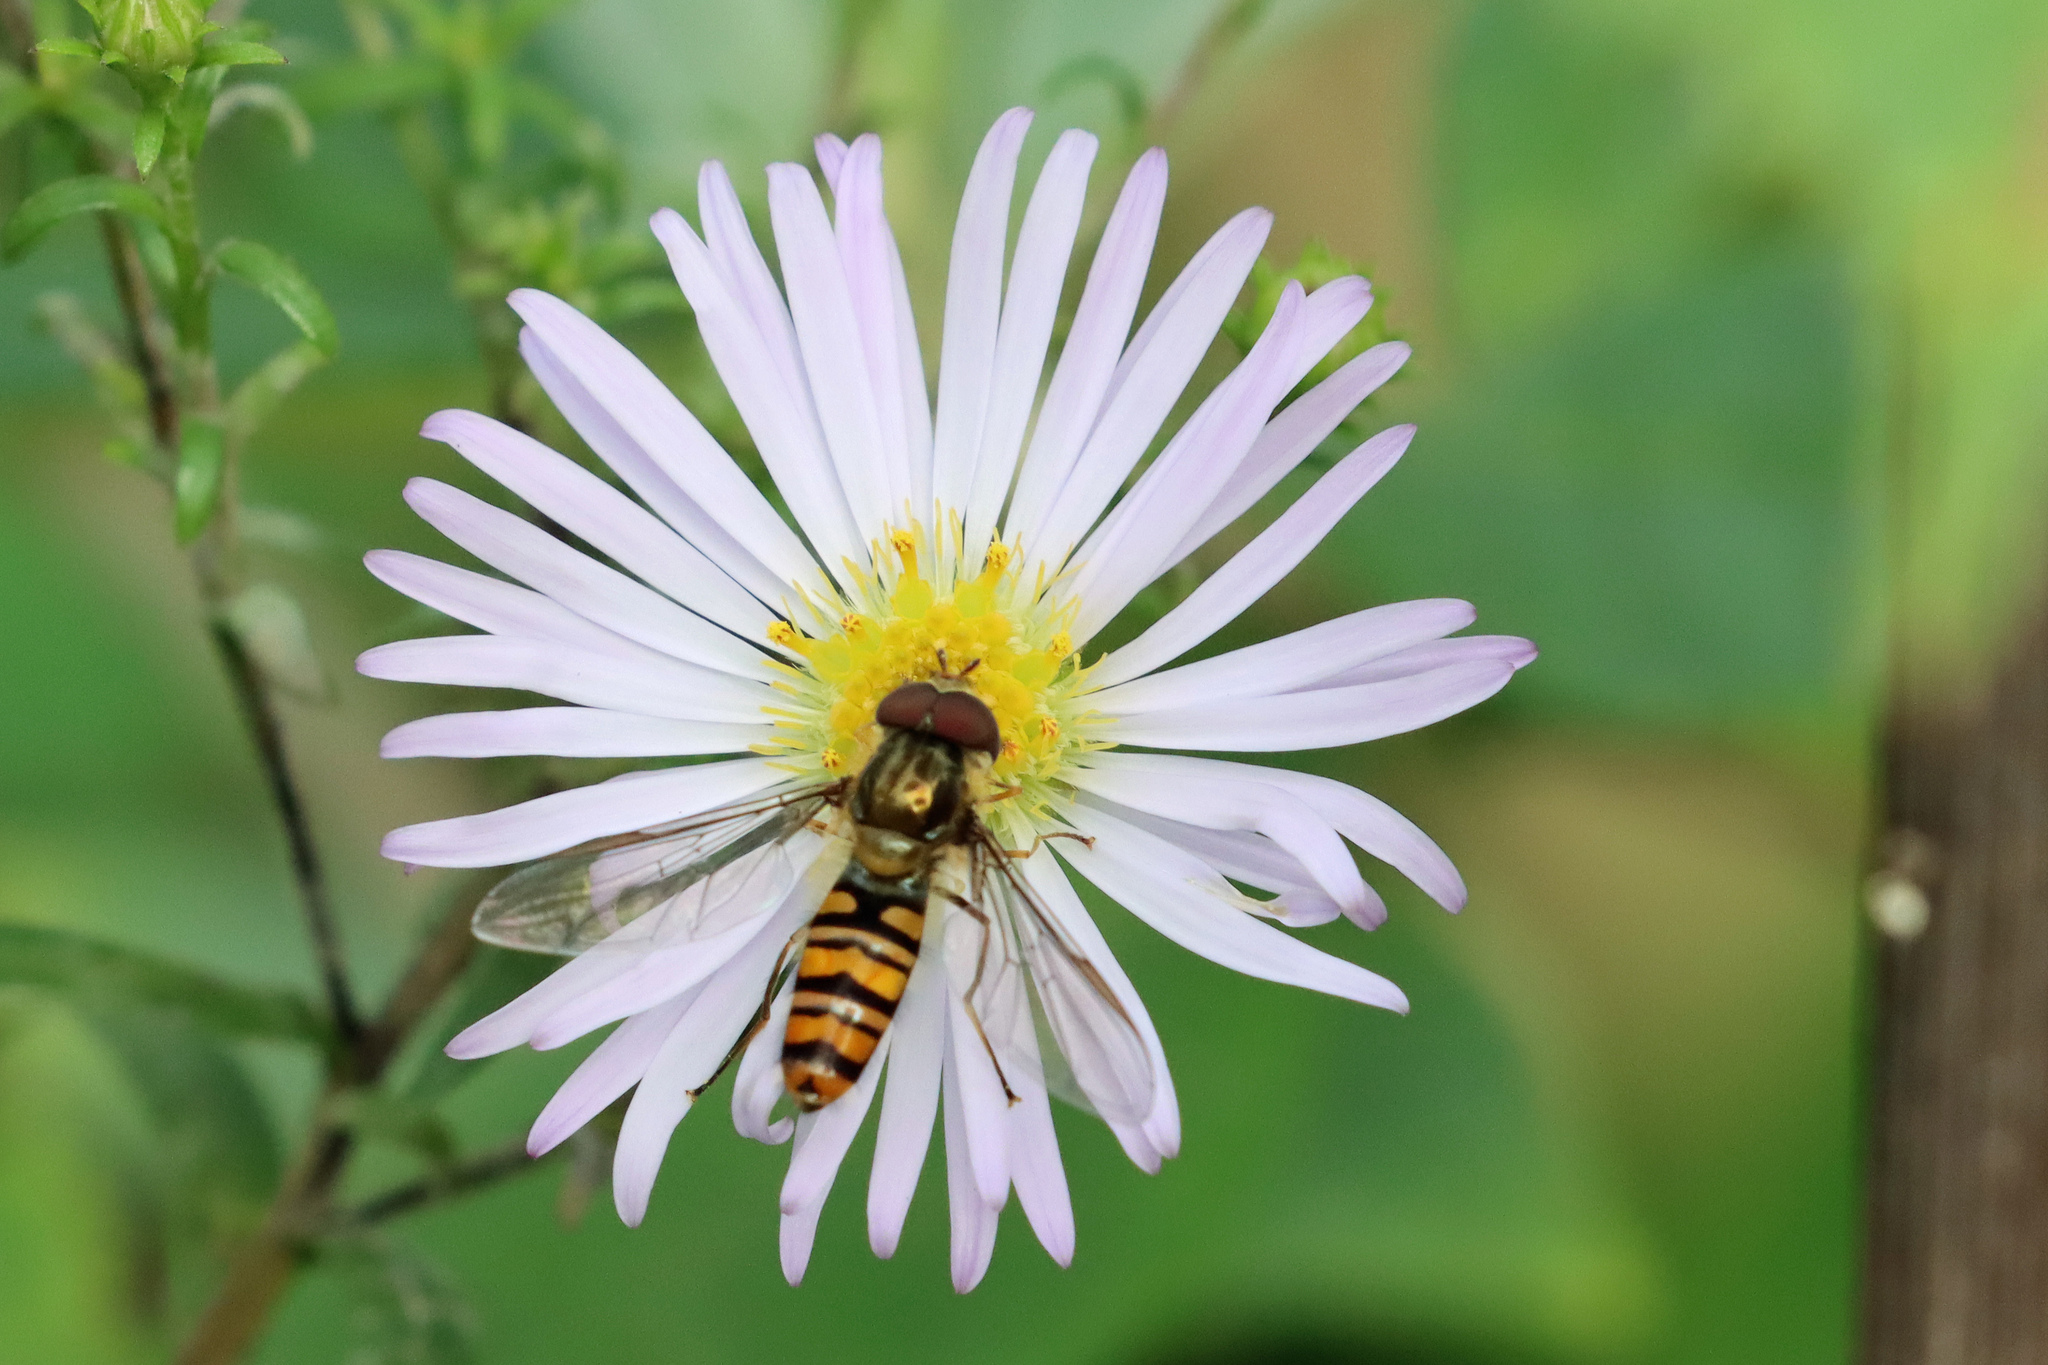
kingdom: Animalia
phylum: Arthropoda
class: Insecta
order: Diptera
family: Syrphidae
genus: Episyrphus
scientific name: Episyrphus balteatus
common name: Marmalade hoverfly
